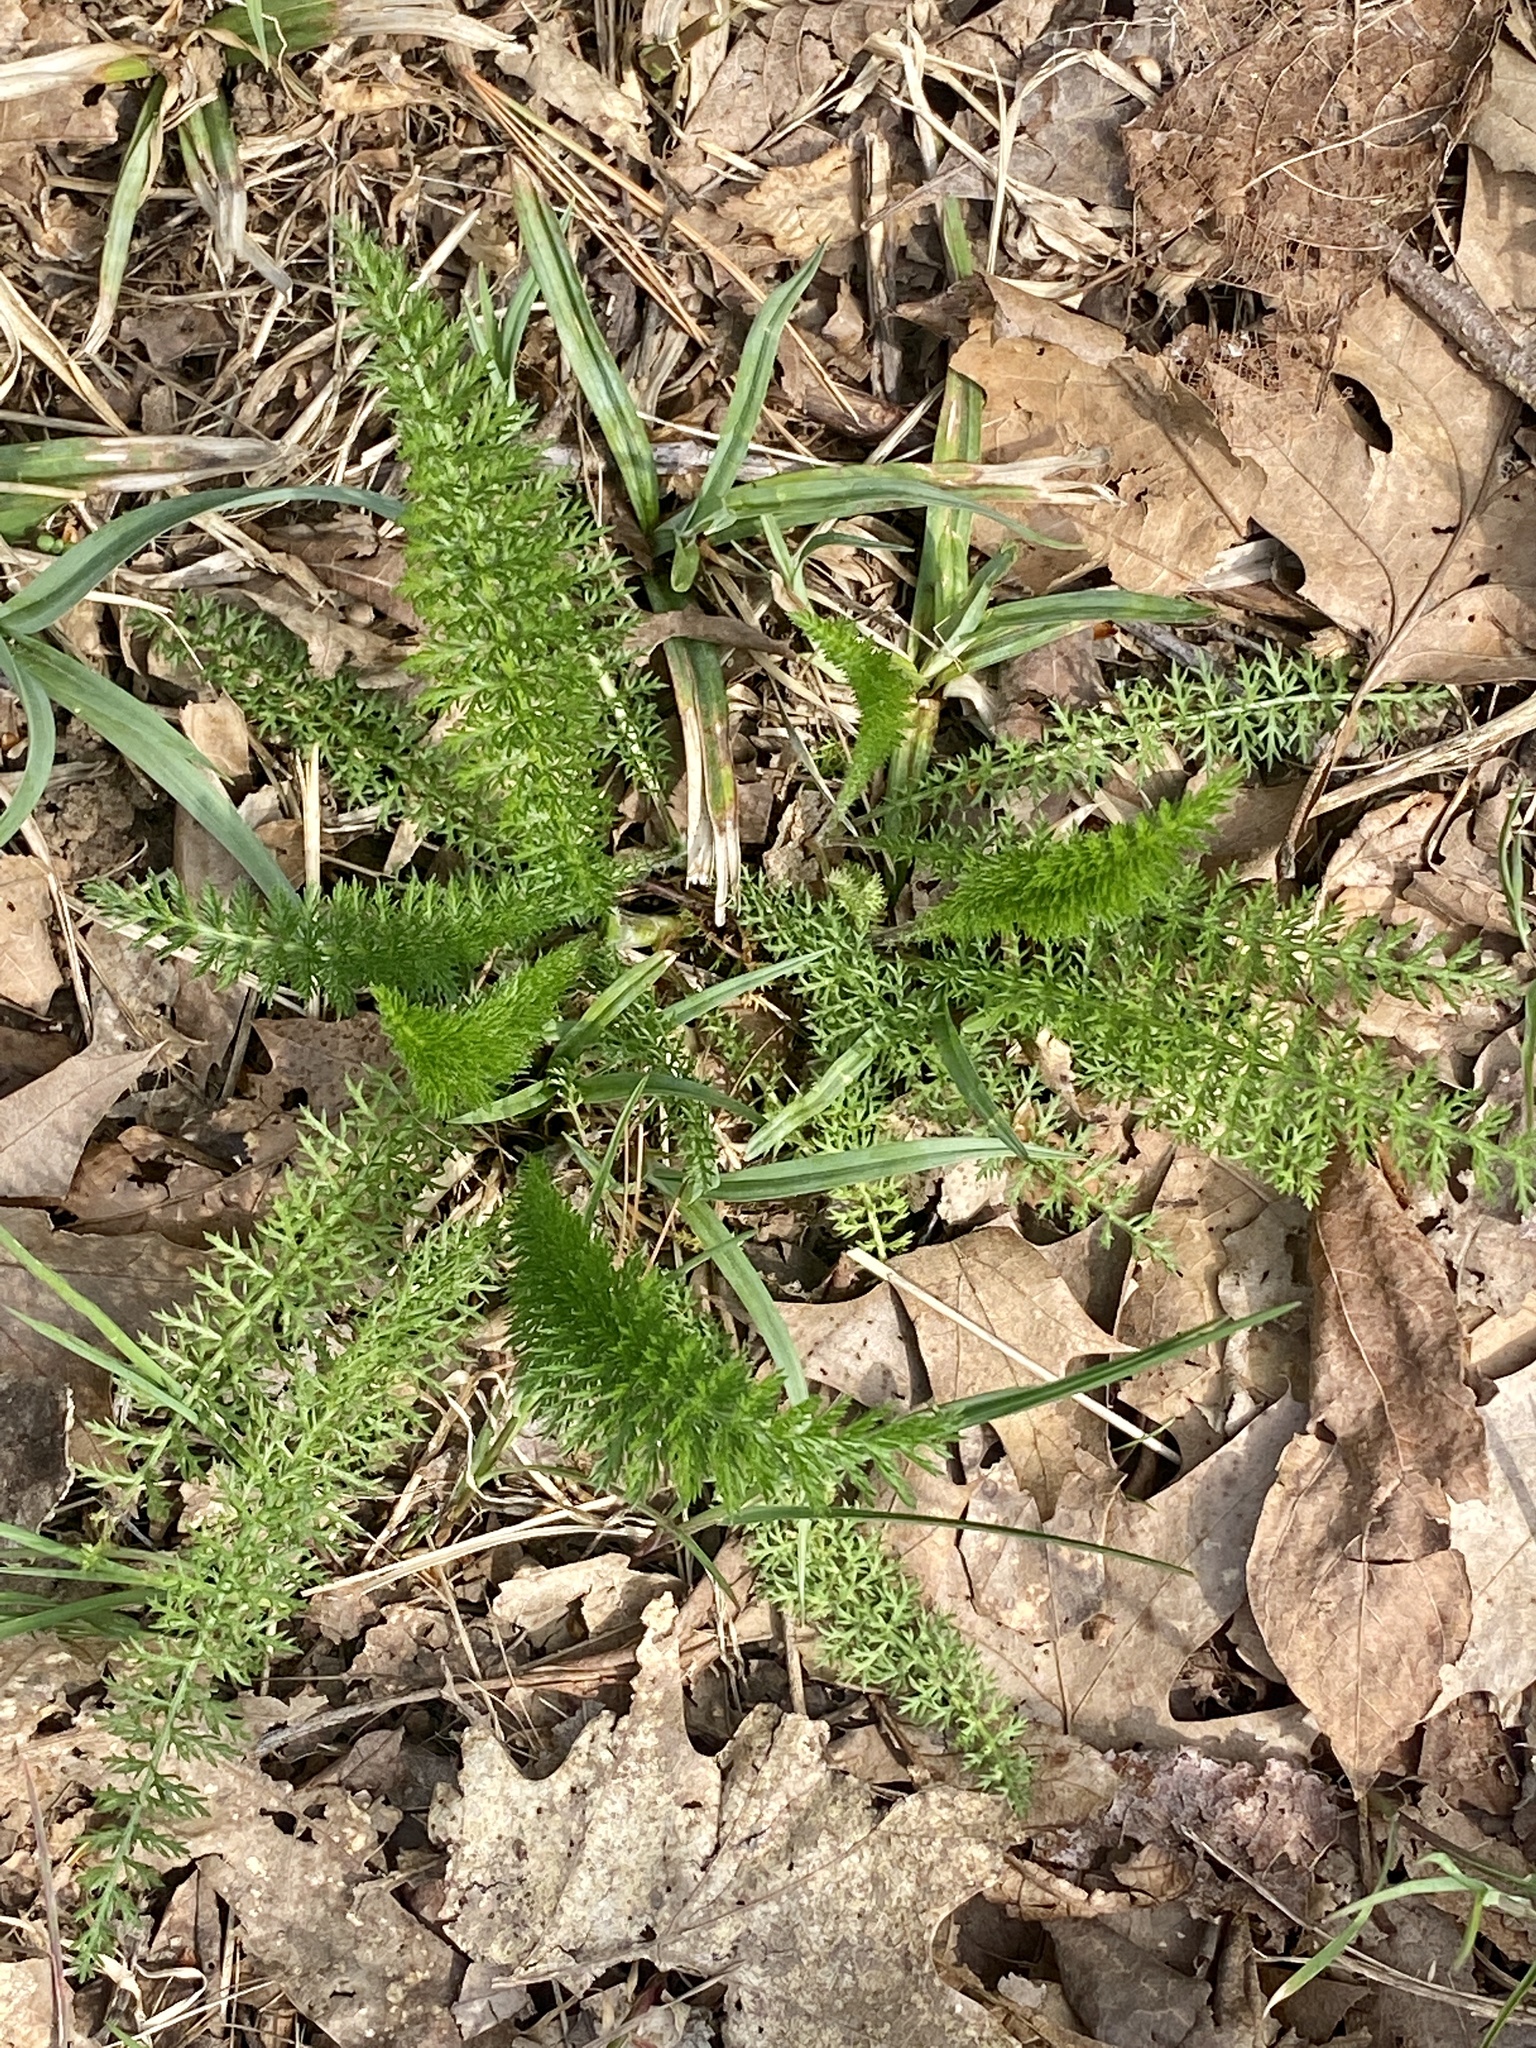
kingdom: Plantae
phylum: Tracheophyta
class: Magnoliopsida
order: Asterales
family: Asteraceae
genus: Achillea
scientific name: Achillea millefolium
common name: Yarrow
